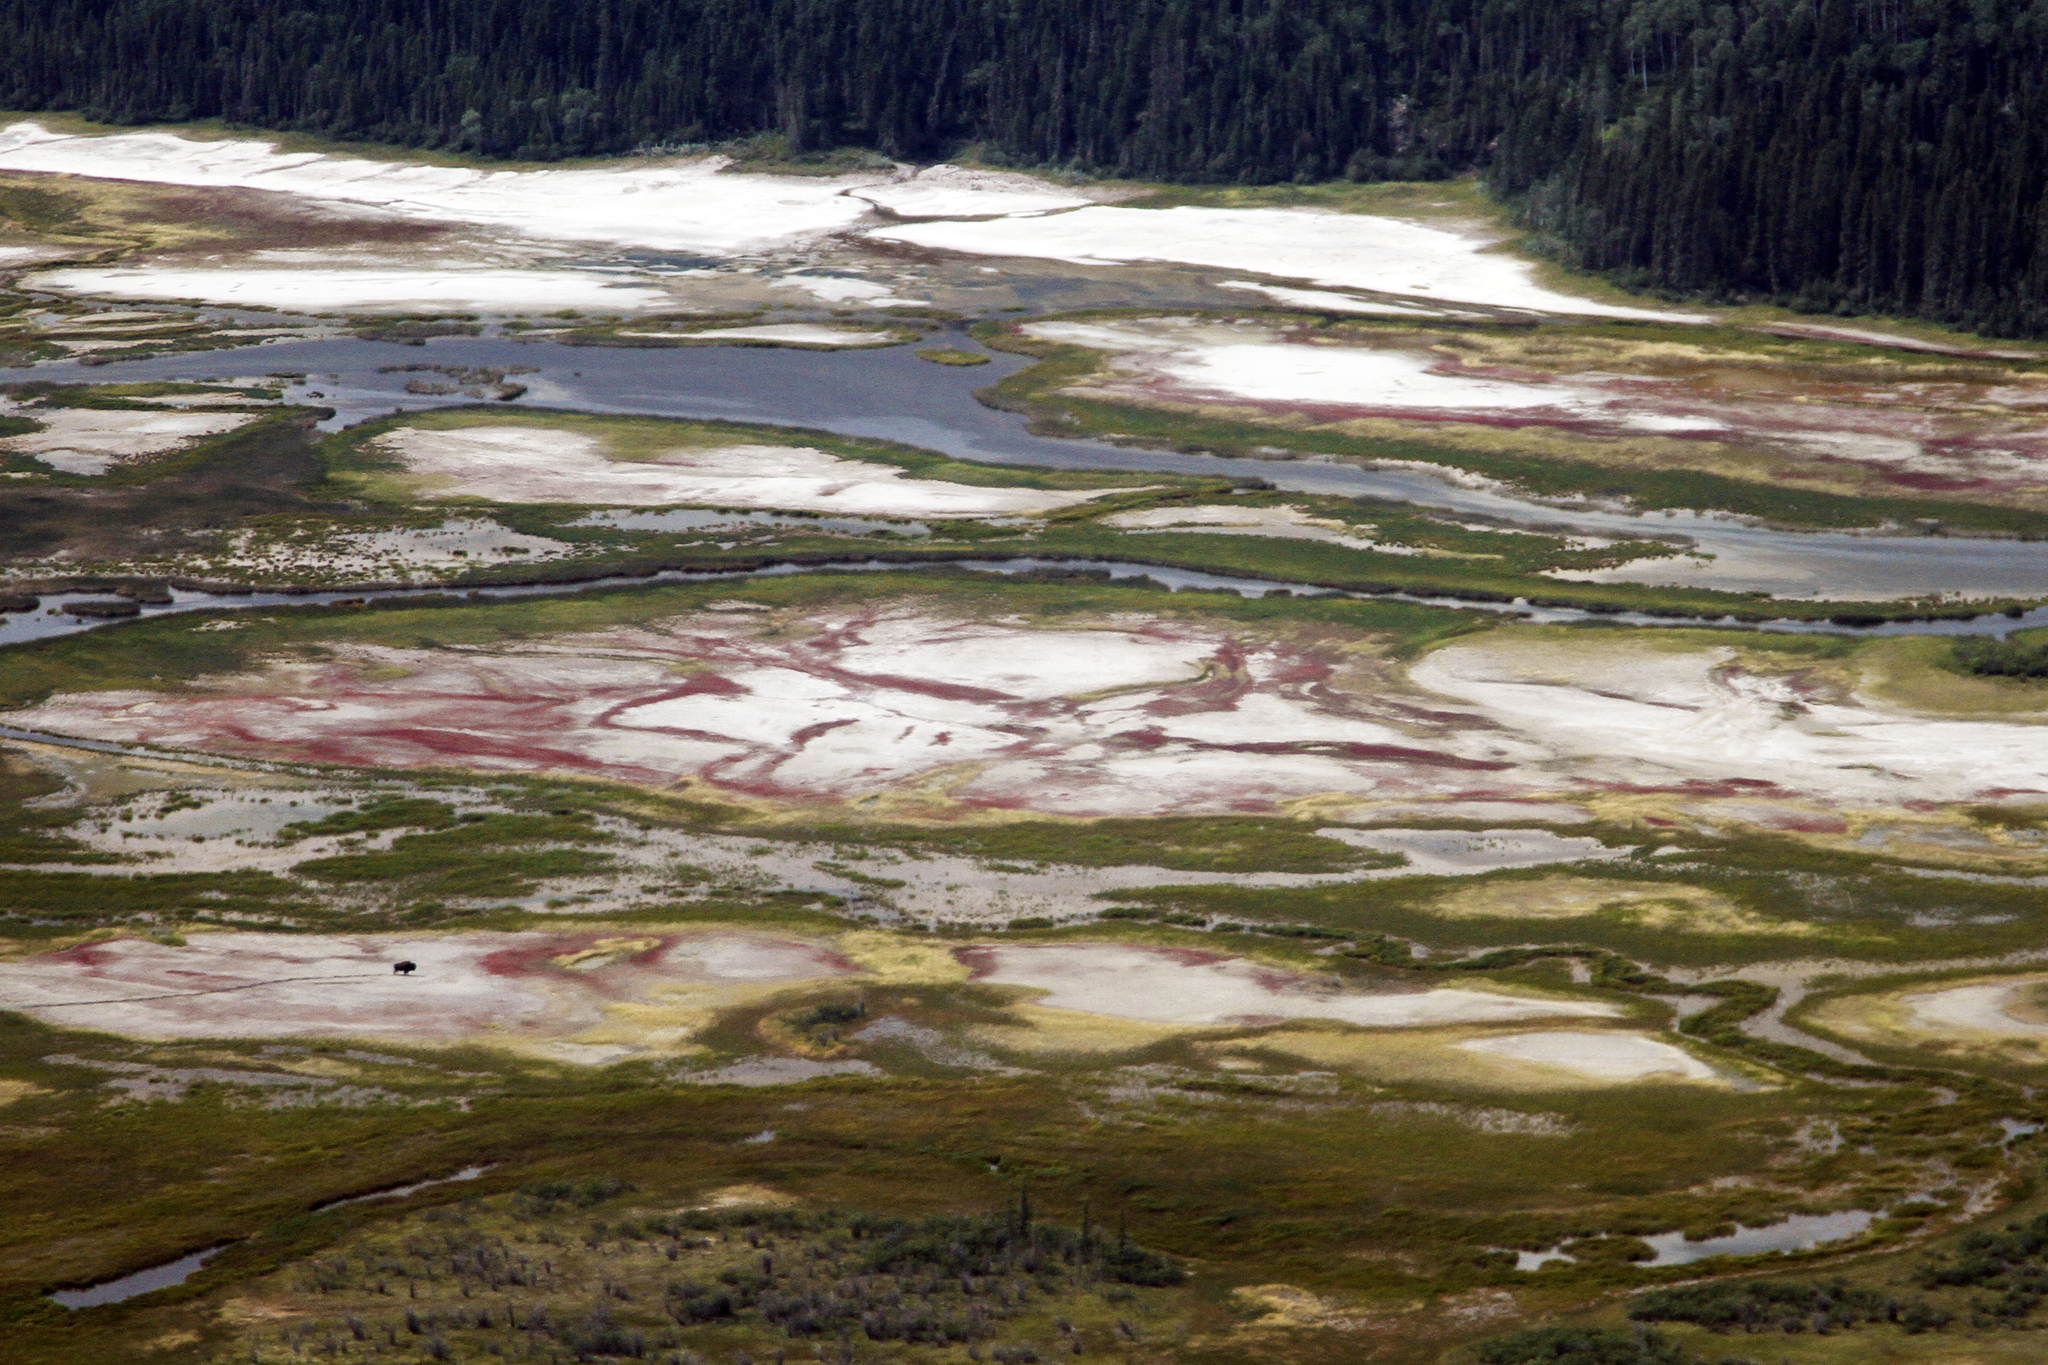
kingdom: Animalia
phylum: Chordata
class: Mammalia
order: Artiodactyla
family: Bovidae
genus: Bison
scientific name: Bison bison
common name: American bison
